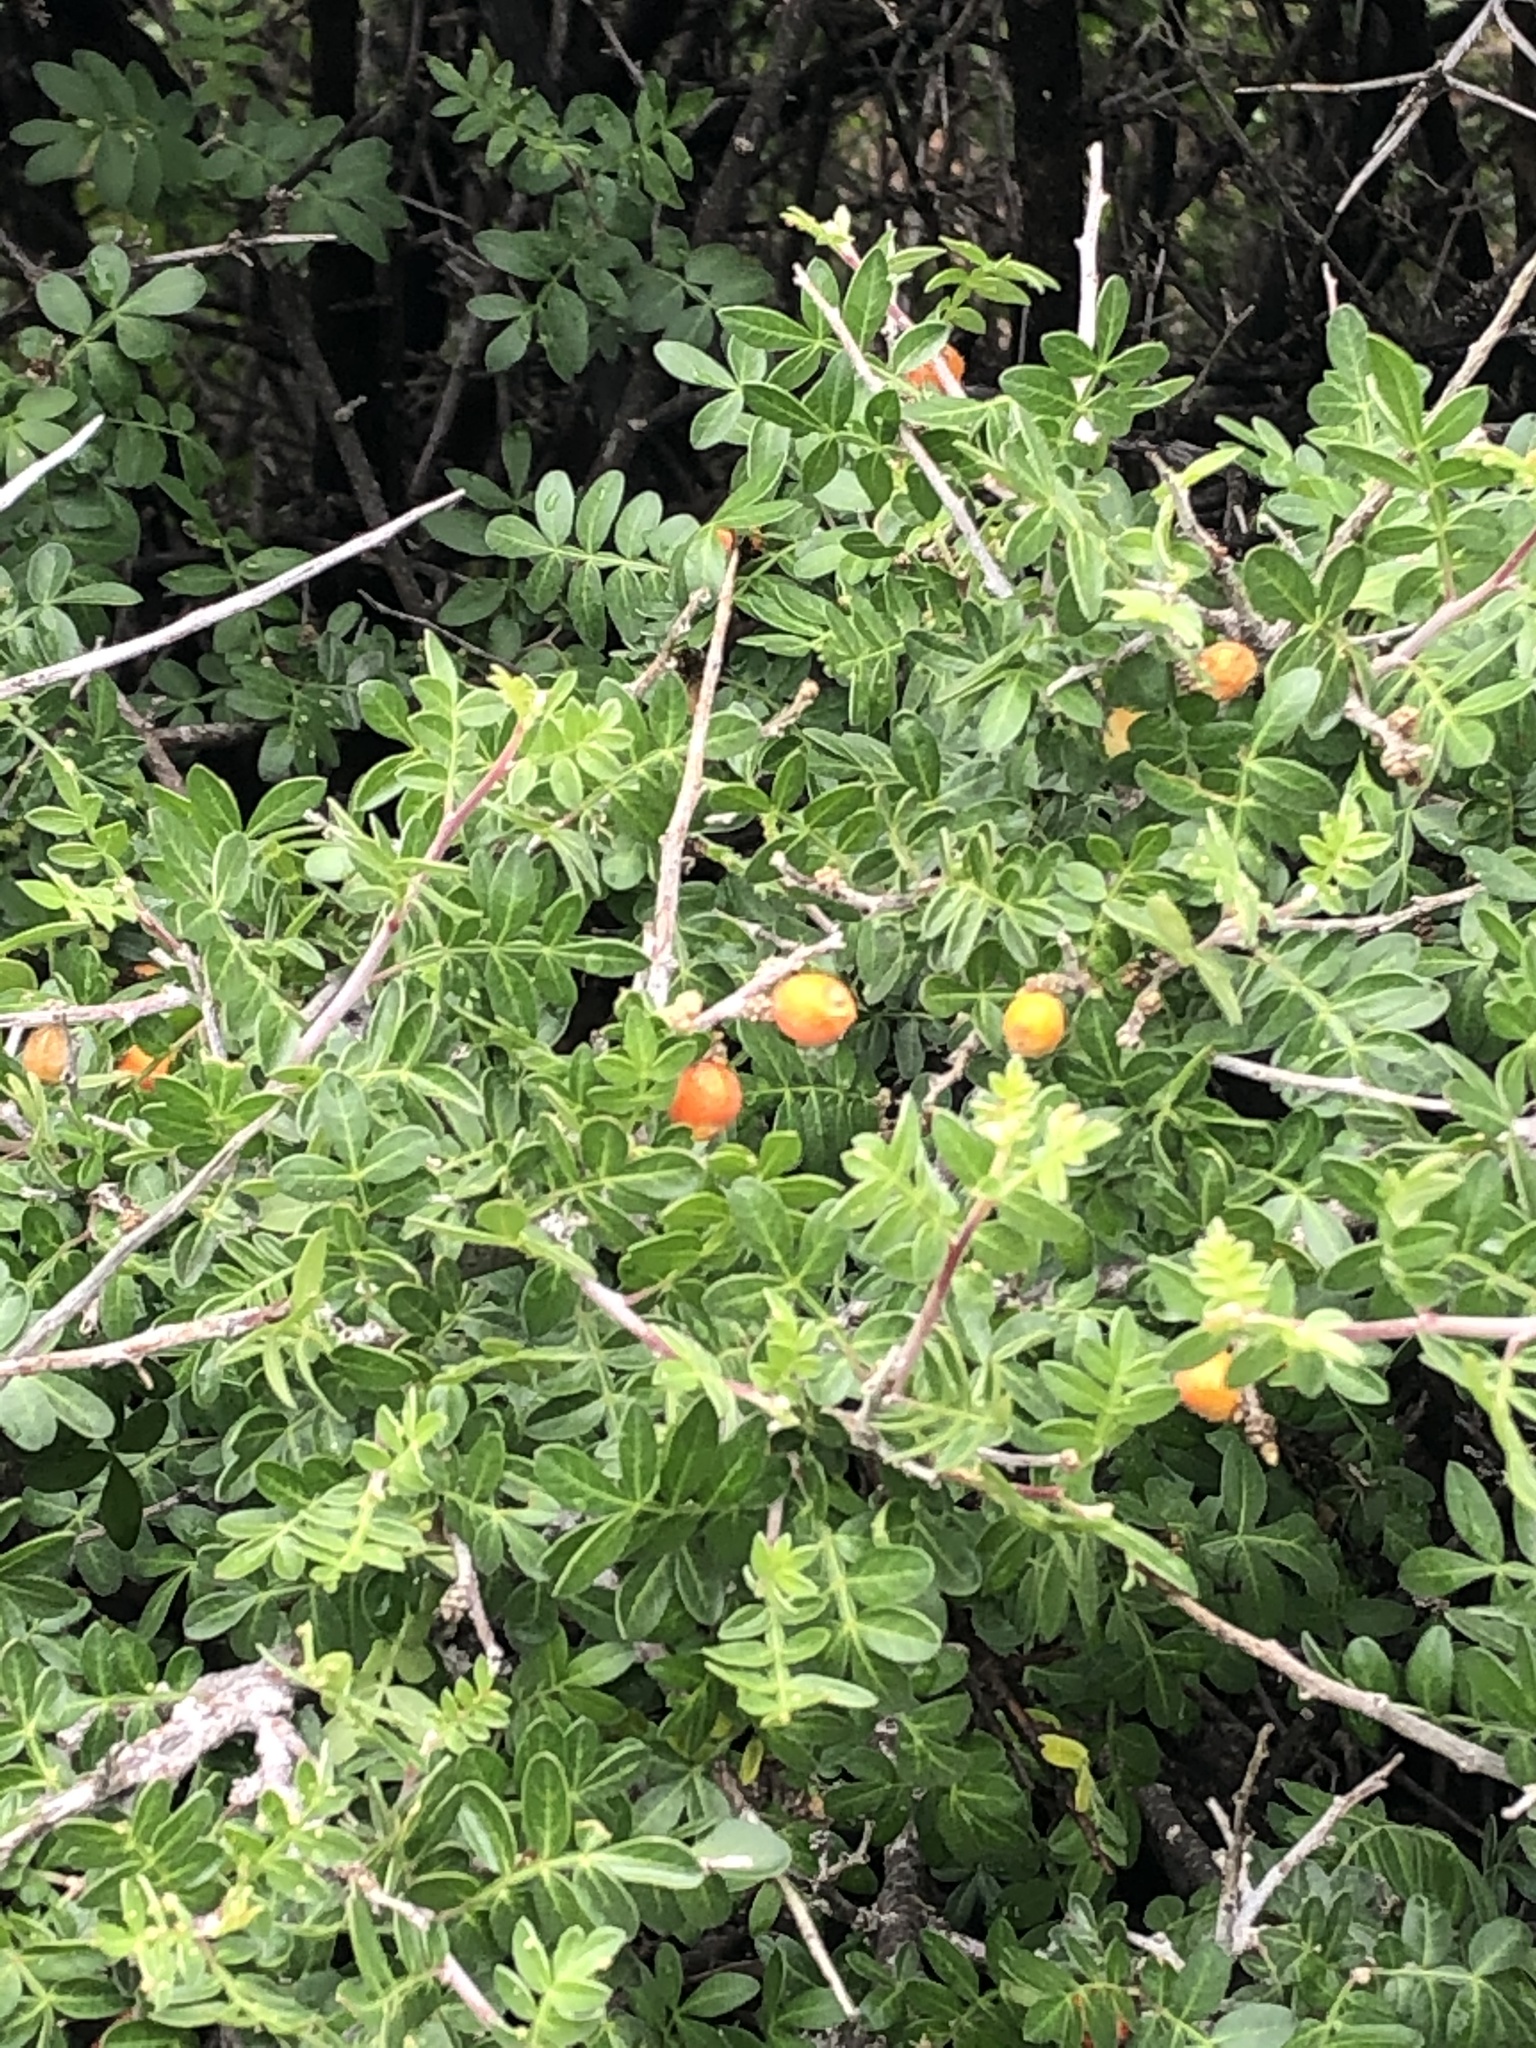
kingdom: Plantae
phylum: Tracheophyta
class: Magnoliopsida
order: Sapindales
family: Anacardiaceae
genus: Rhus
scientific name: Rhus microphylla
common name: Desert sumac
